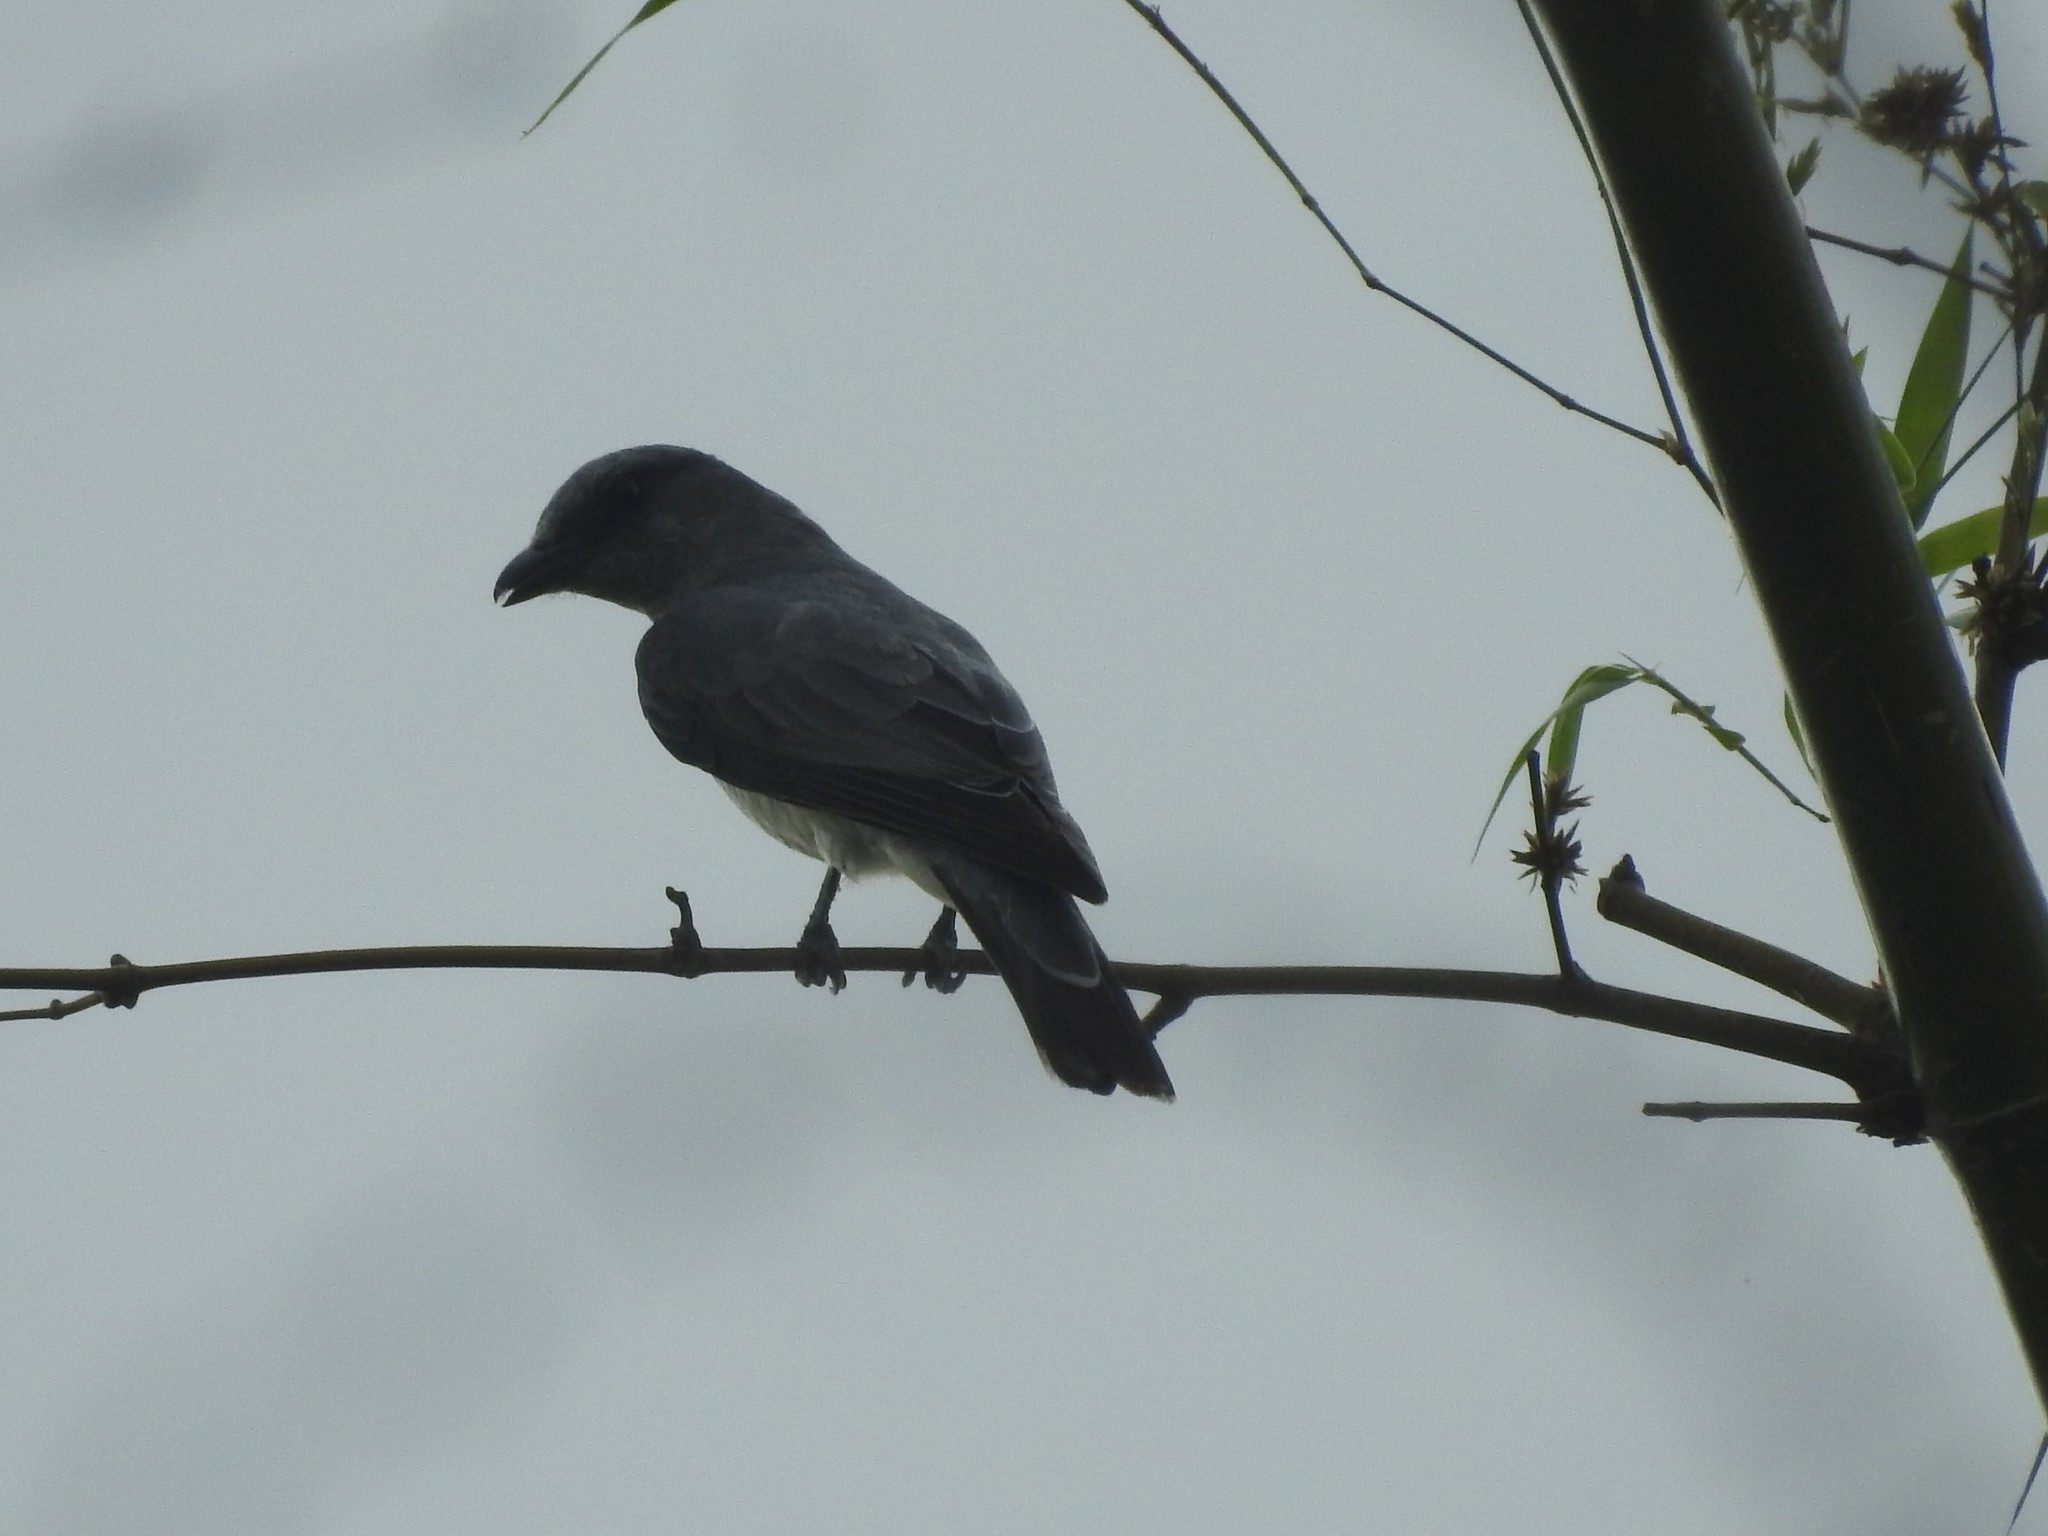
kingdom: Animalia
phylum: Chordata
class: Aves
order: Passeriformes
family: Campephagidae
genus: Coracina
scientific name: Coracina macei
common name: Large cuckooshrike
